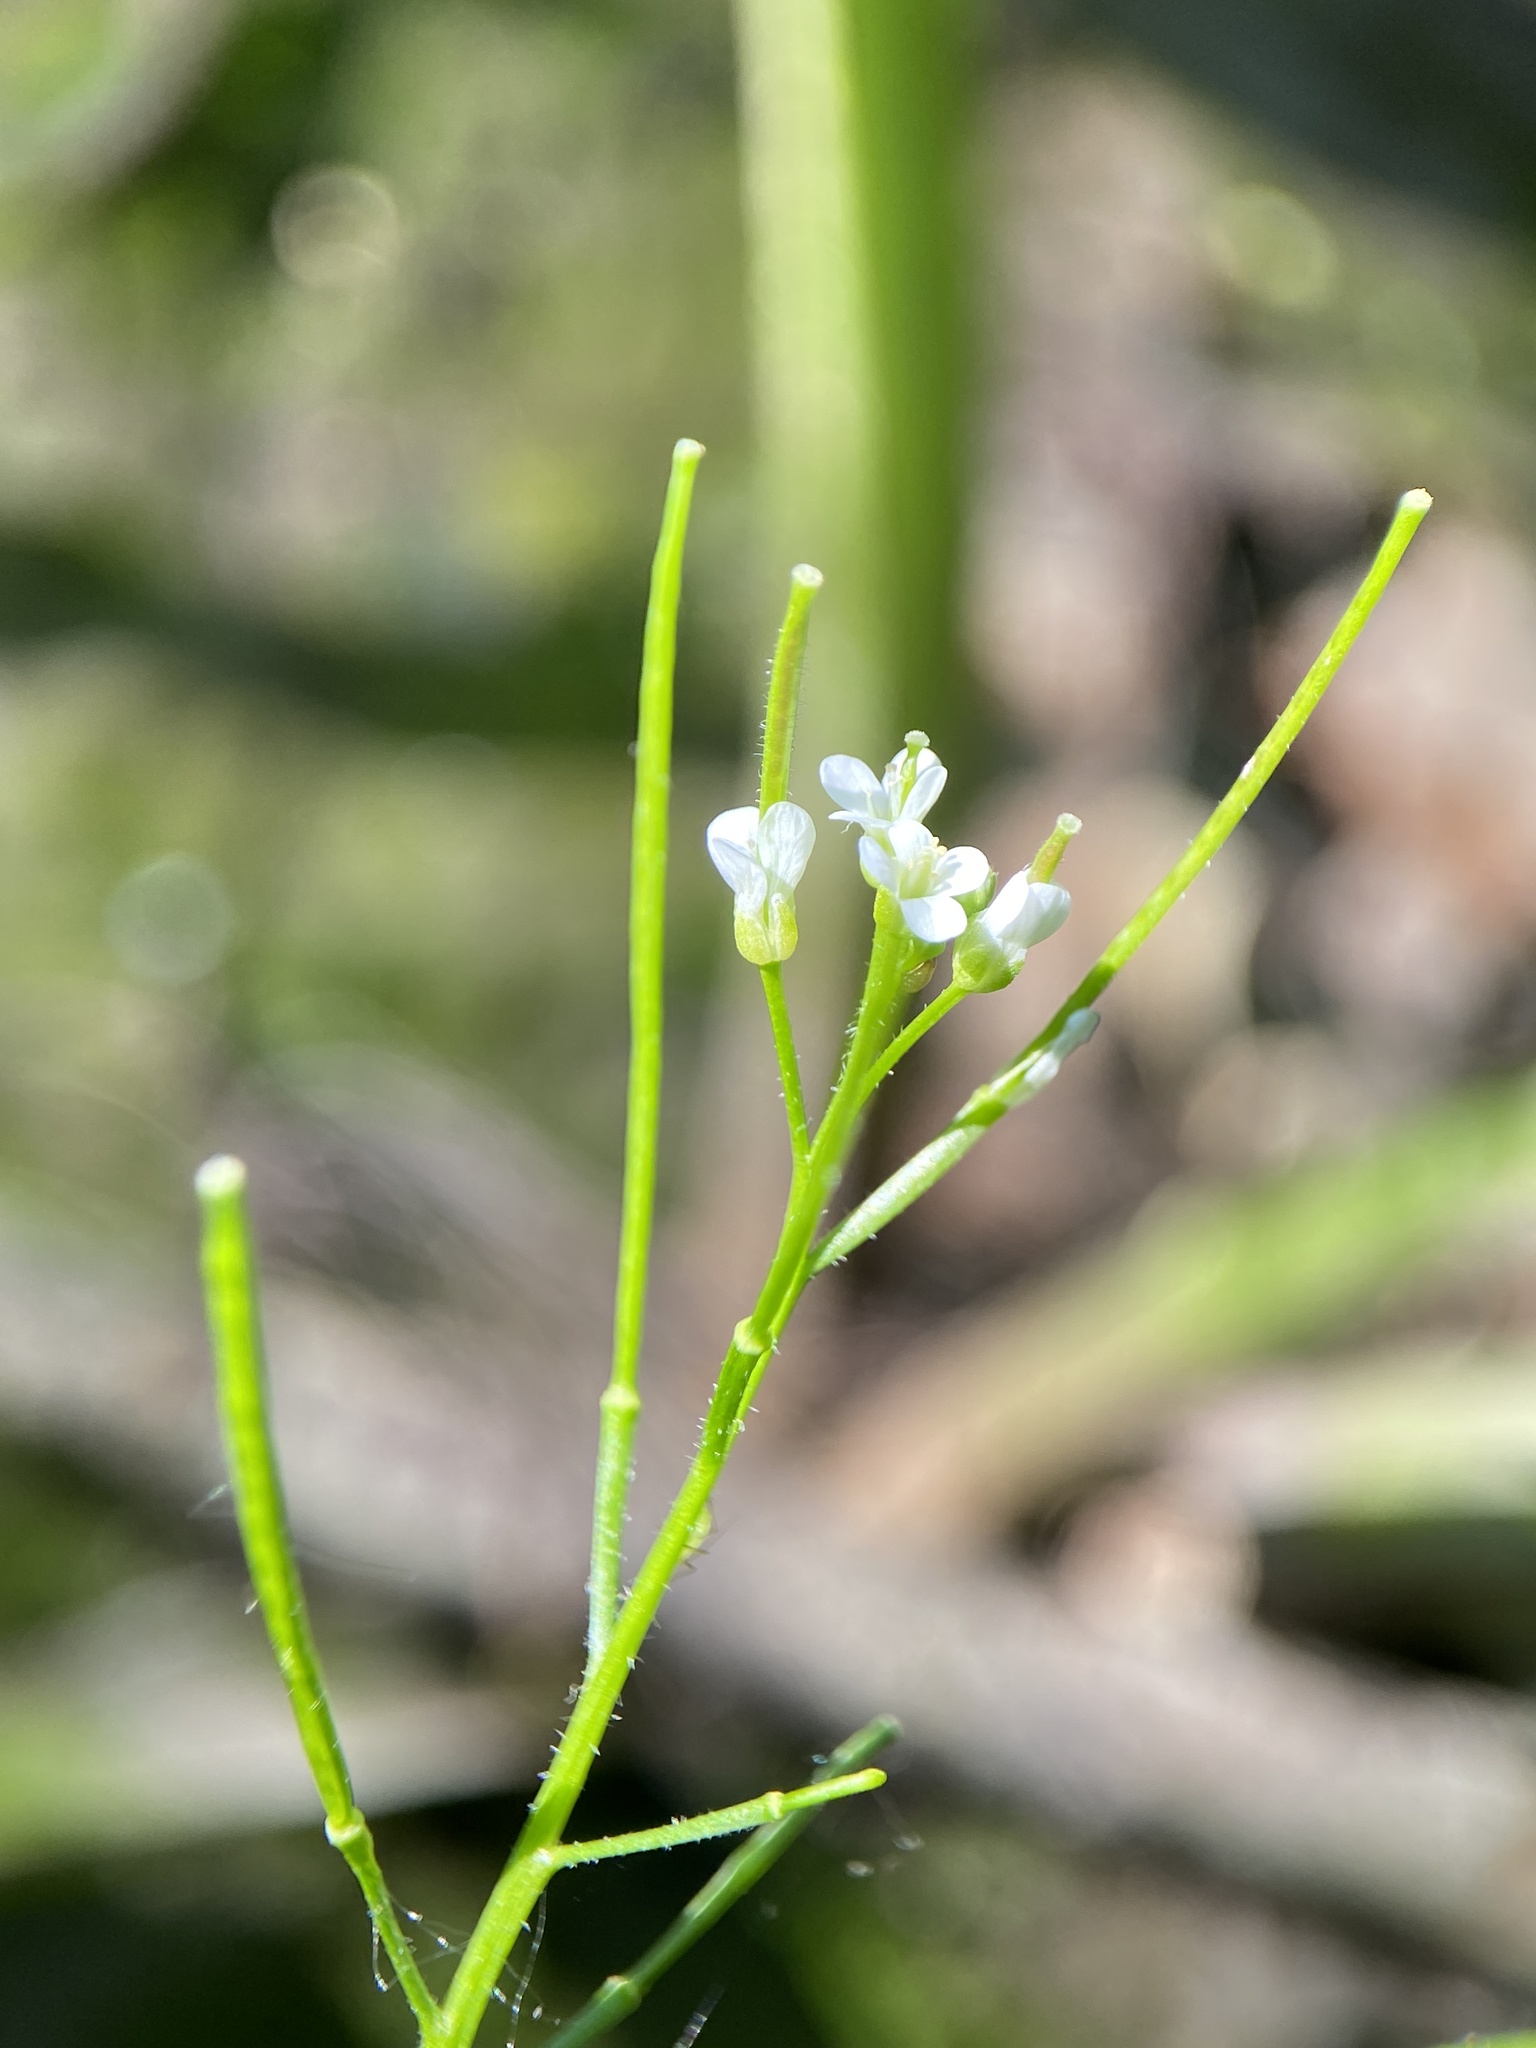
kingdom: Plantae
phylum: Tracheophyta
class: Magnoliopsida
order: Brassicales
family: Brassicaceae
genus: Cardamine
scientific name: Cardamine pensylvanica
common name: Pennsylvania bittercress
